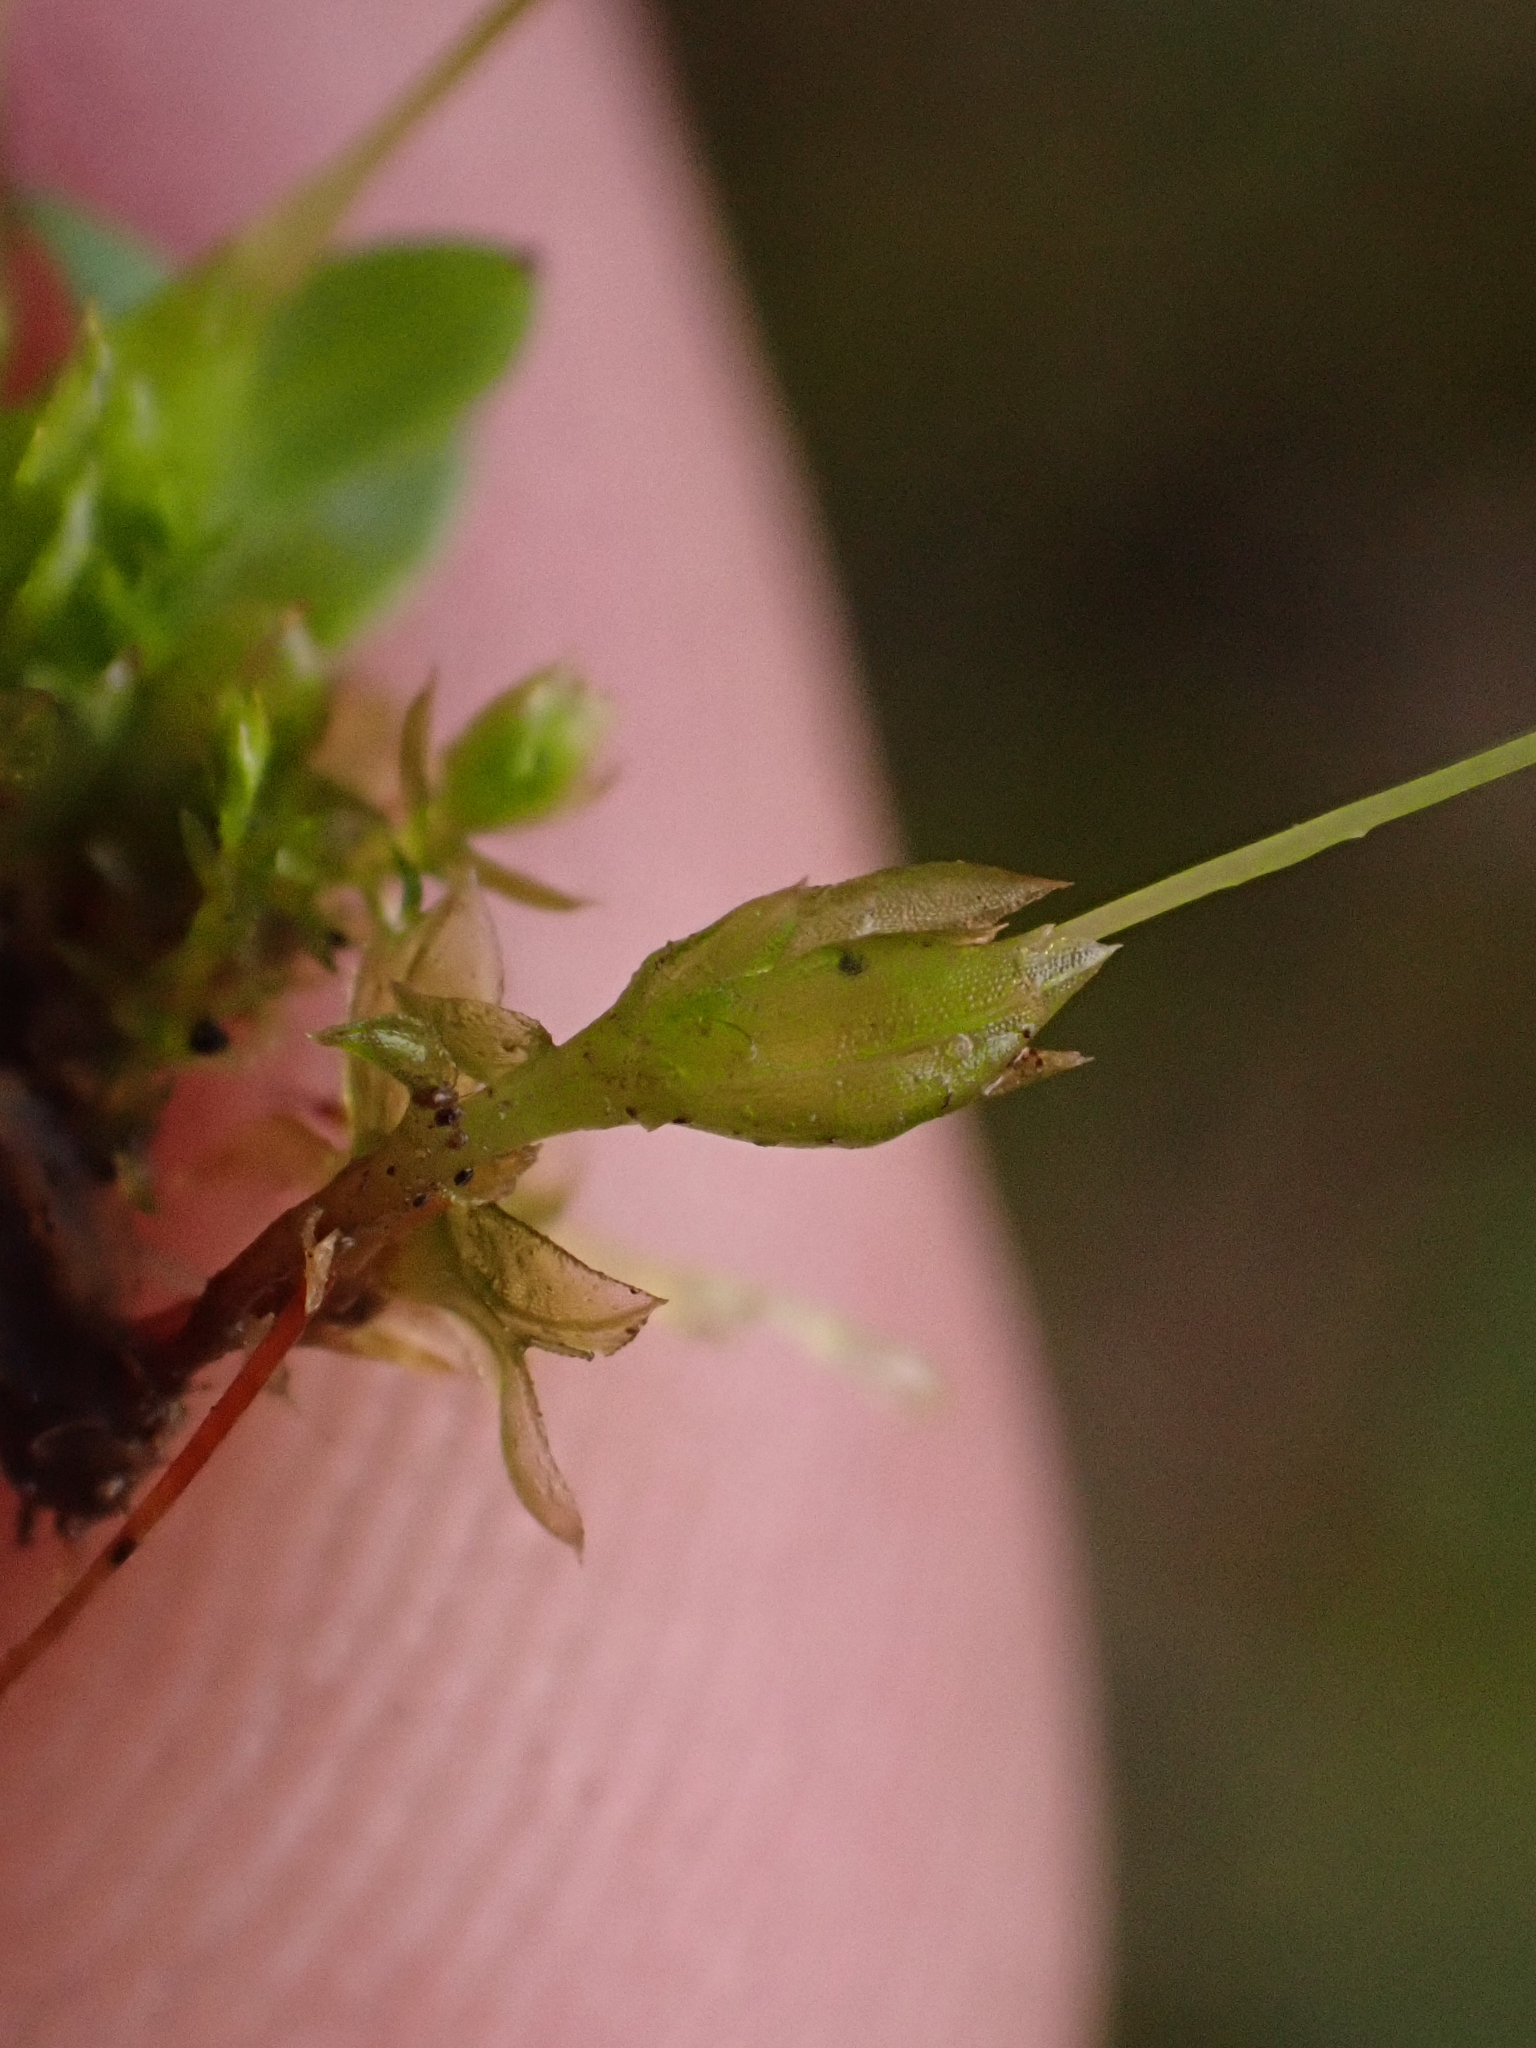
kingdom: Plantae
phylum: Bryophyta
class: Bryopsida
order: Funariales
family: Funariaceae
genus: Funaria
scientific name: Funaria hygrometrica
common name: Common cord moss
